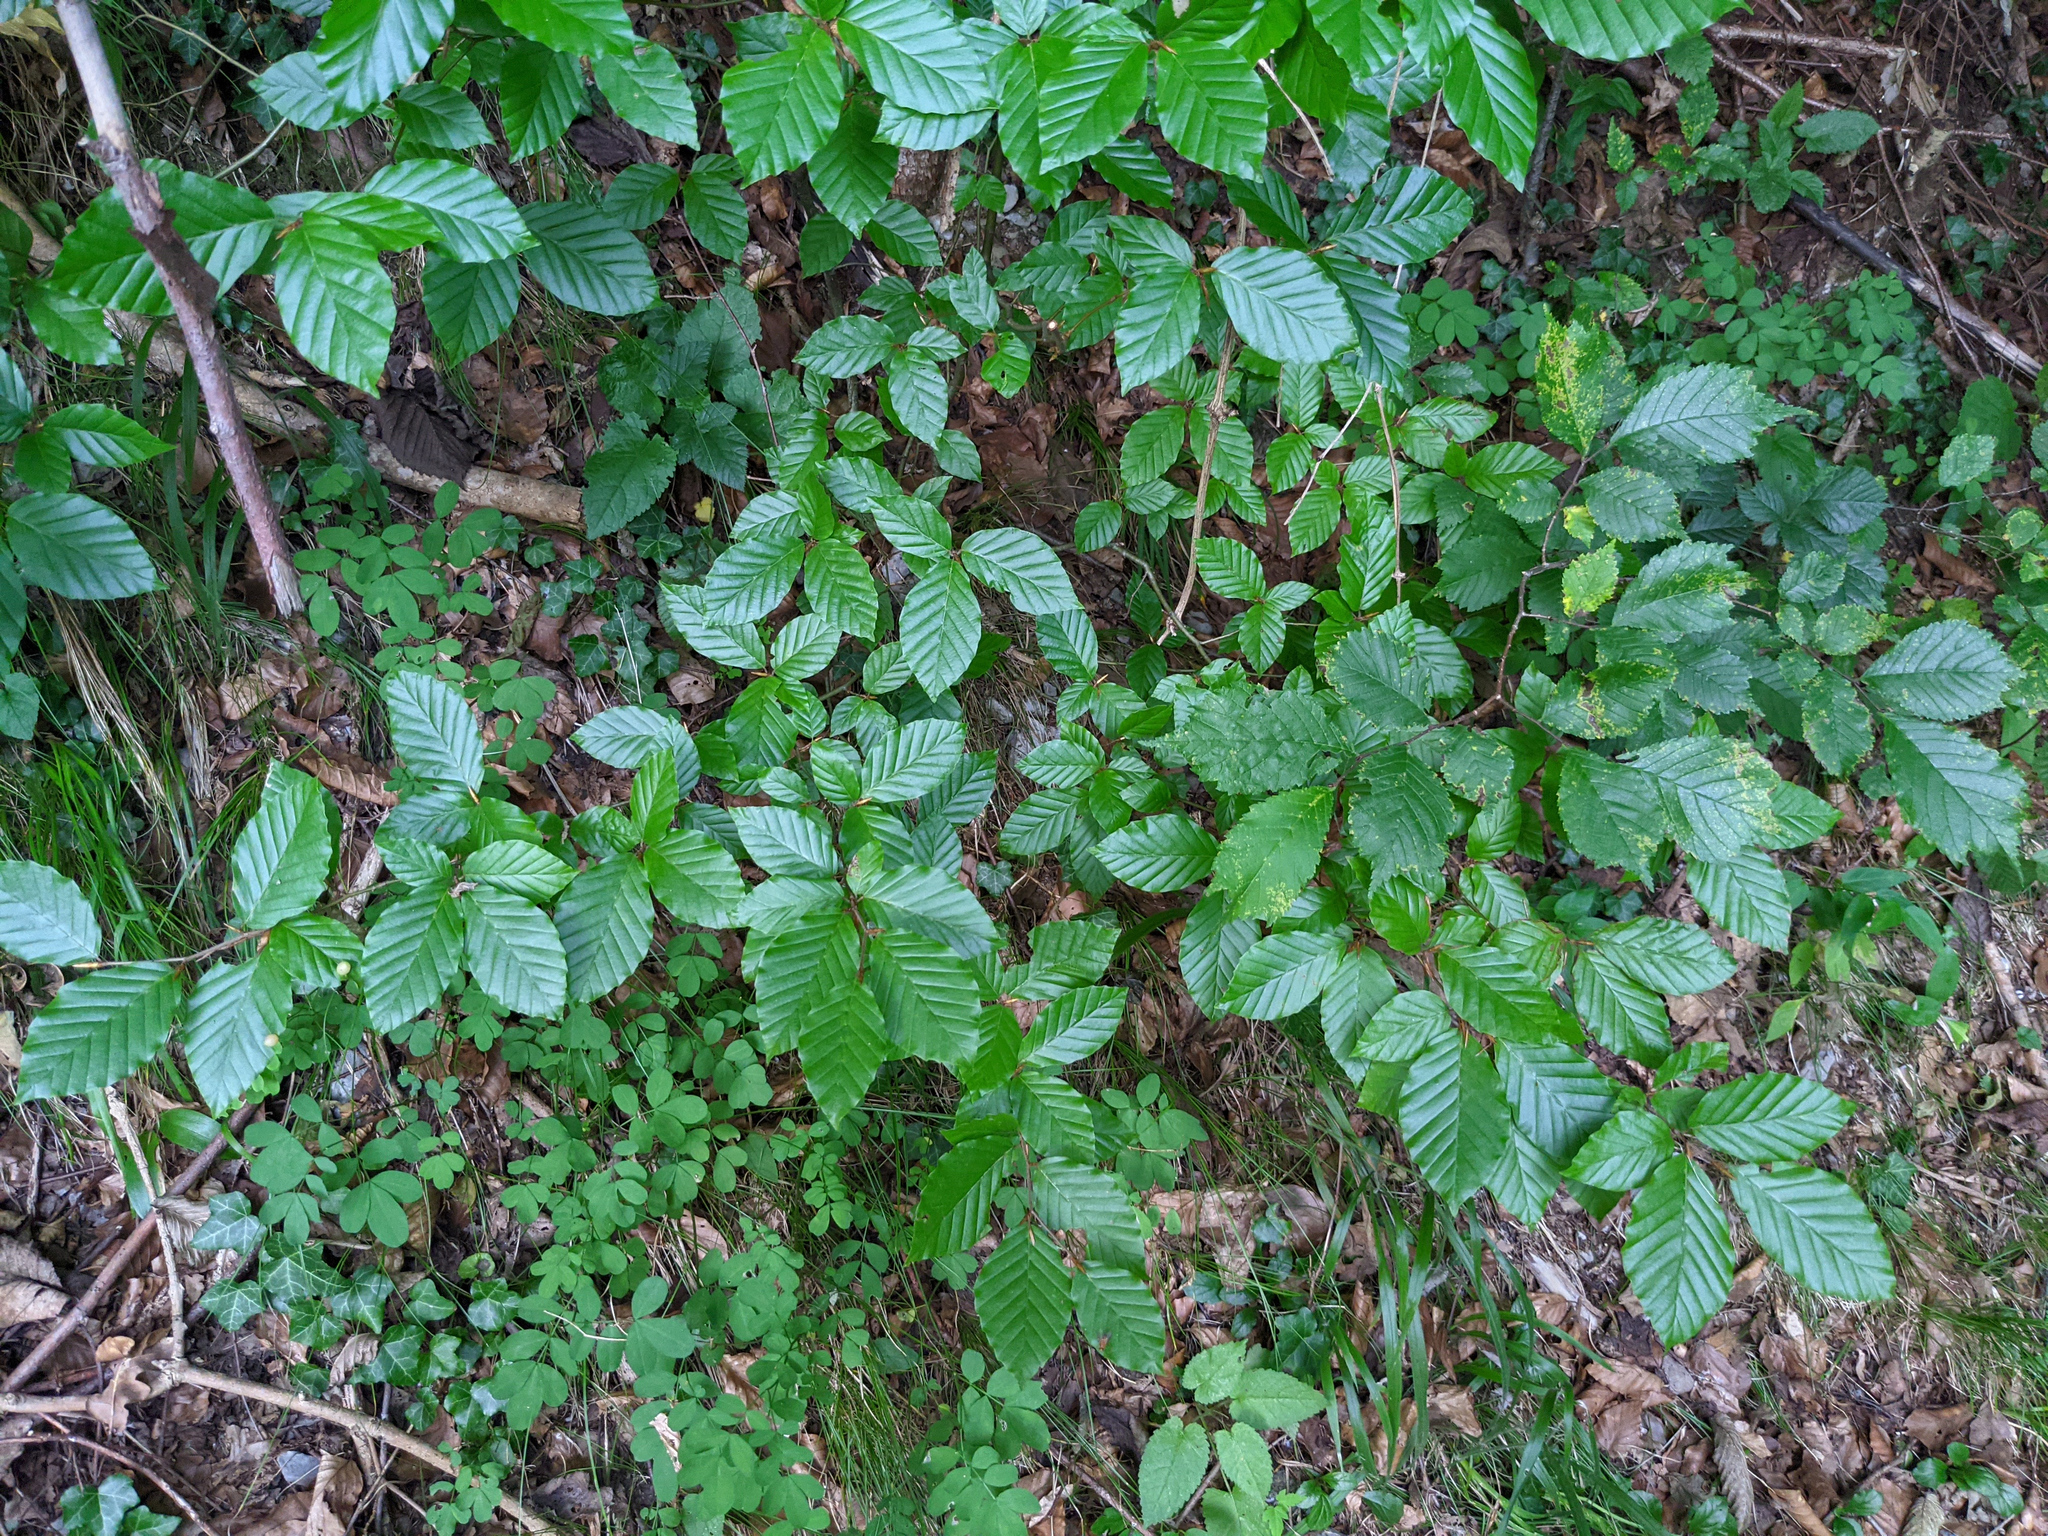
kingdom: Plantae
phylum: Tracheophyta
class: Magnoliopsida
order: Fagales
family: Fagaceae
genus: Fagus
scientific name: Fagus sylvatica
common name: Beech
